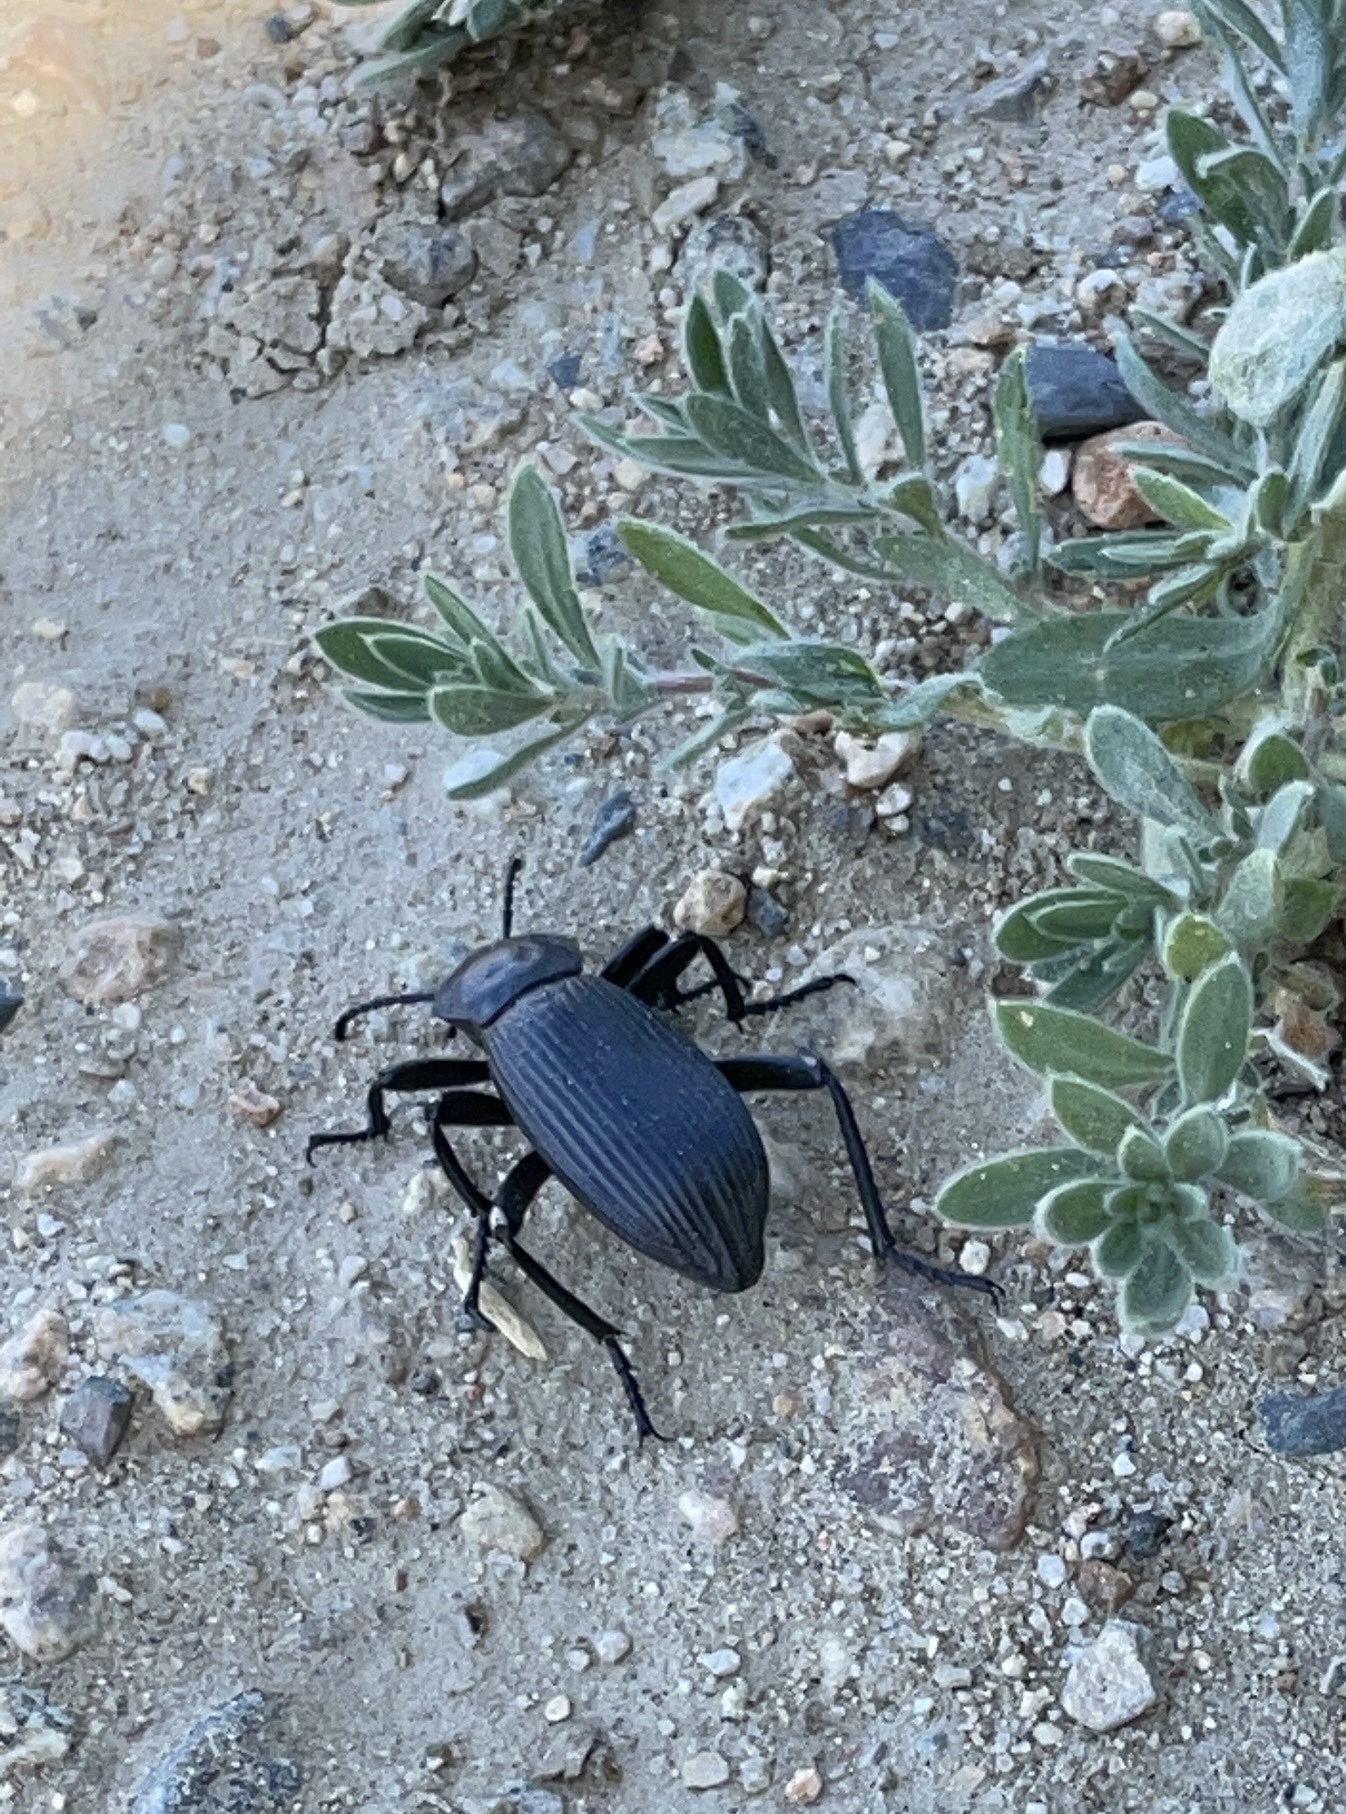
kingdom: Animalia
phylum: Arthropoda
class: Insecta
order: Coleoptera
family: Tenebrionidae
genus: Eleodes
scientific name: Eleodes obscura
